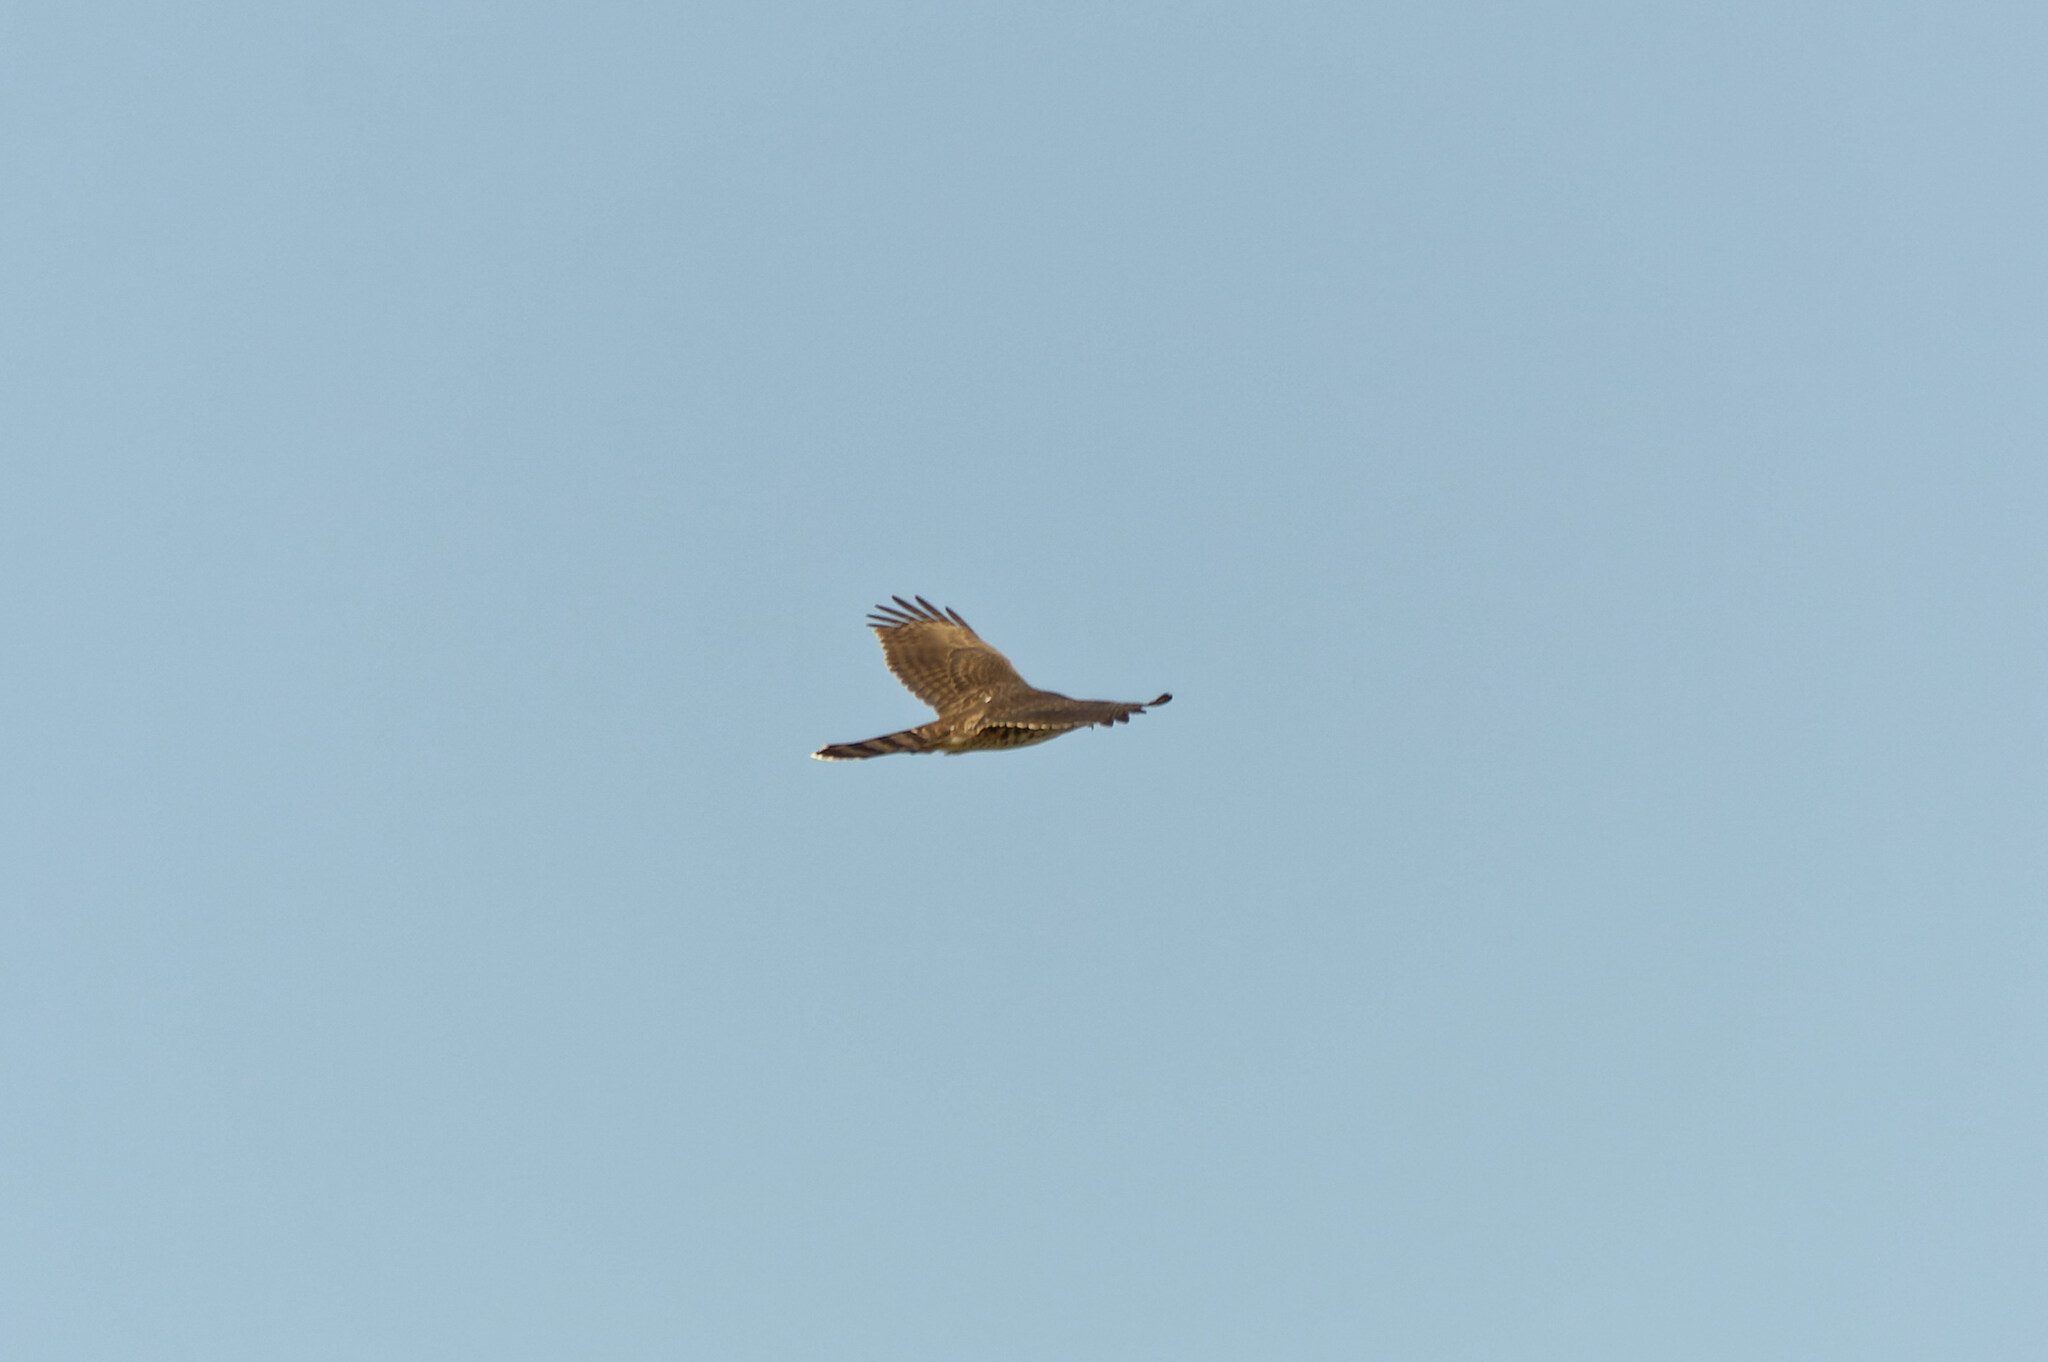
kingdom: Animalia
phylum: Chordata
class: Aves
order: Accipitriformes
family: Accipitridae
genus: Accipiter
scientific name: Accipiter cooperii
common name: Cooper's hawk
